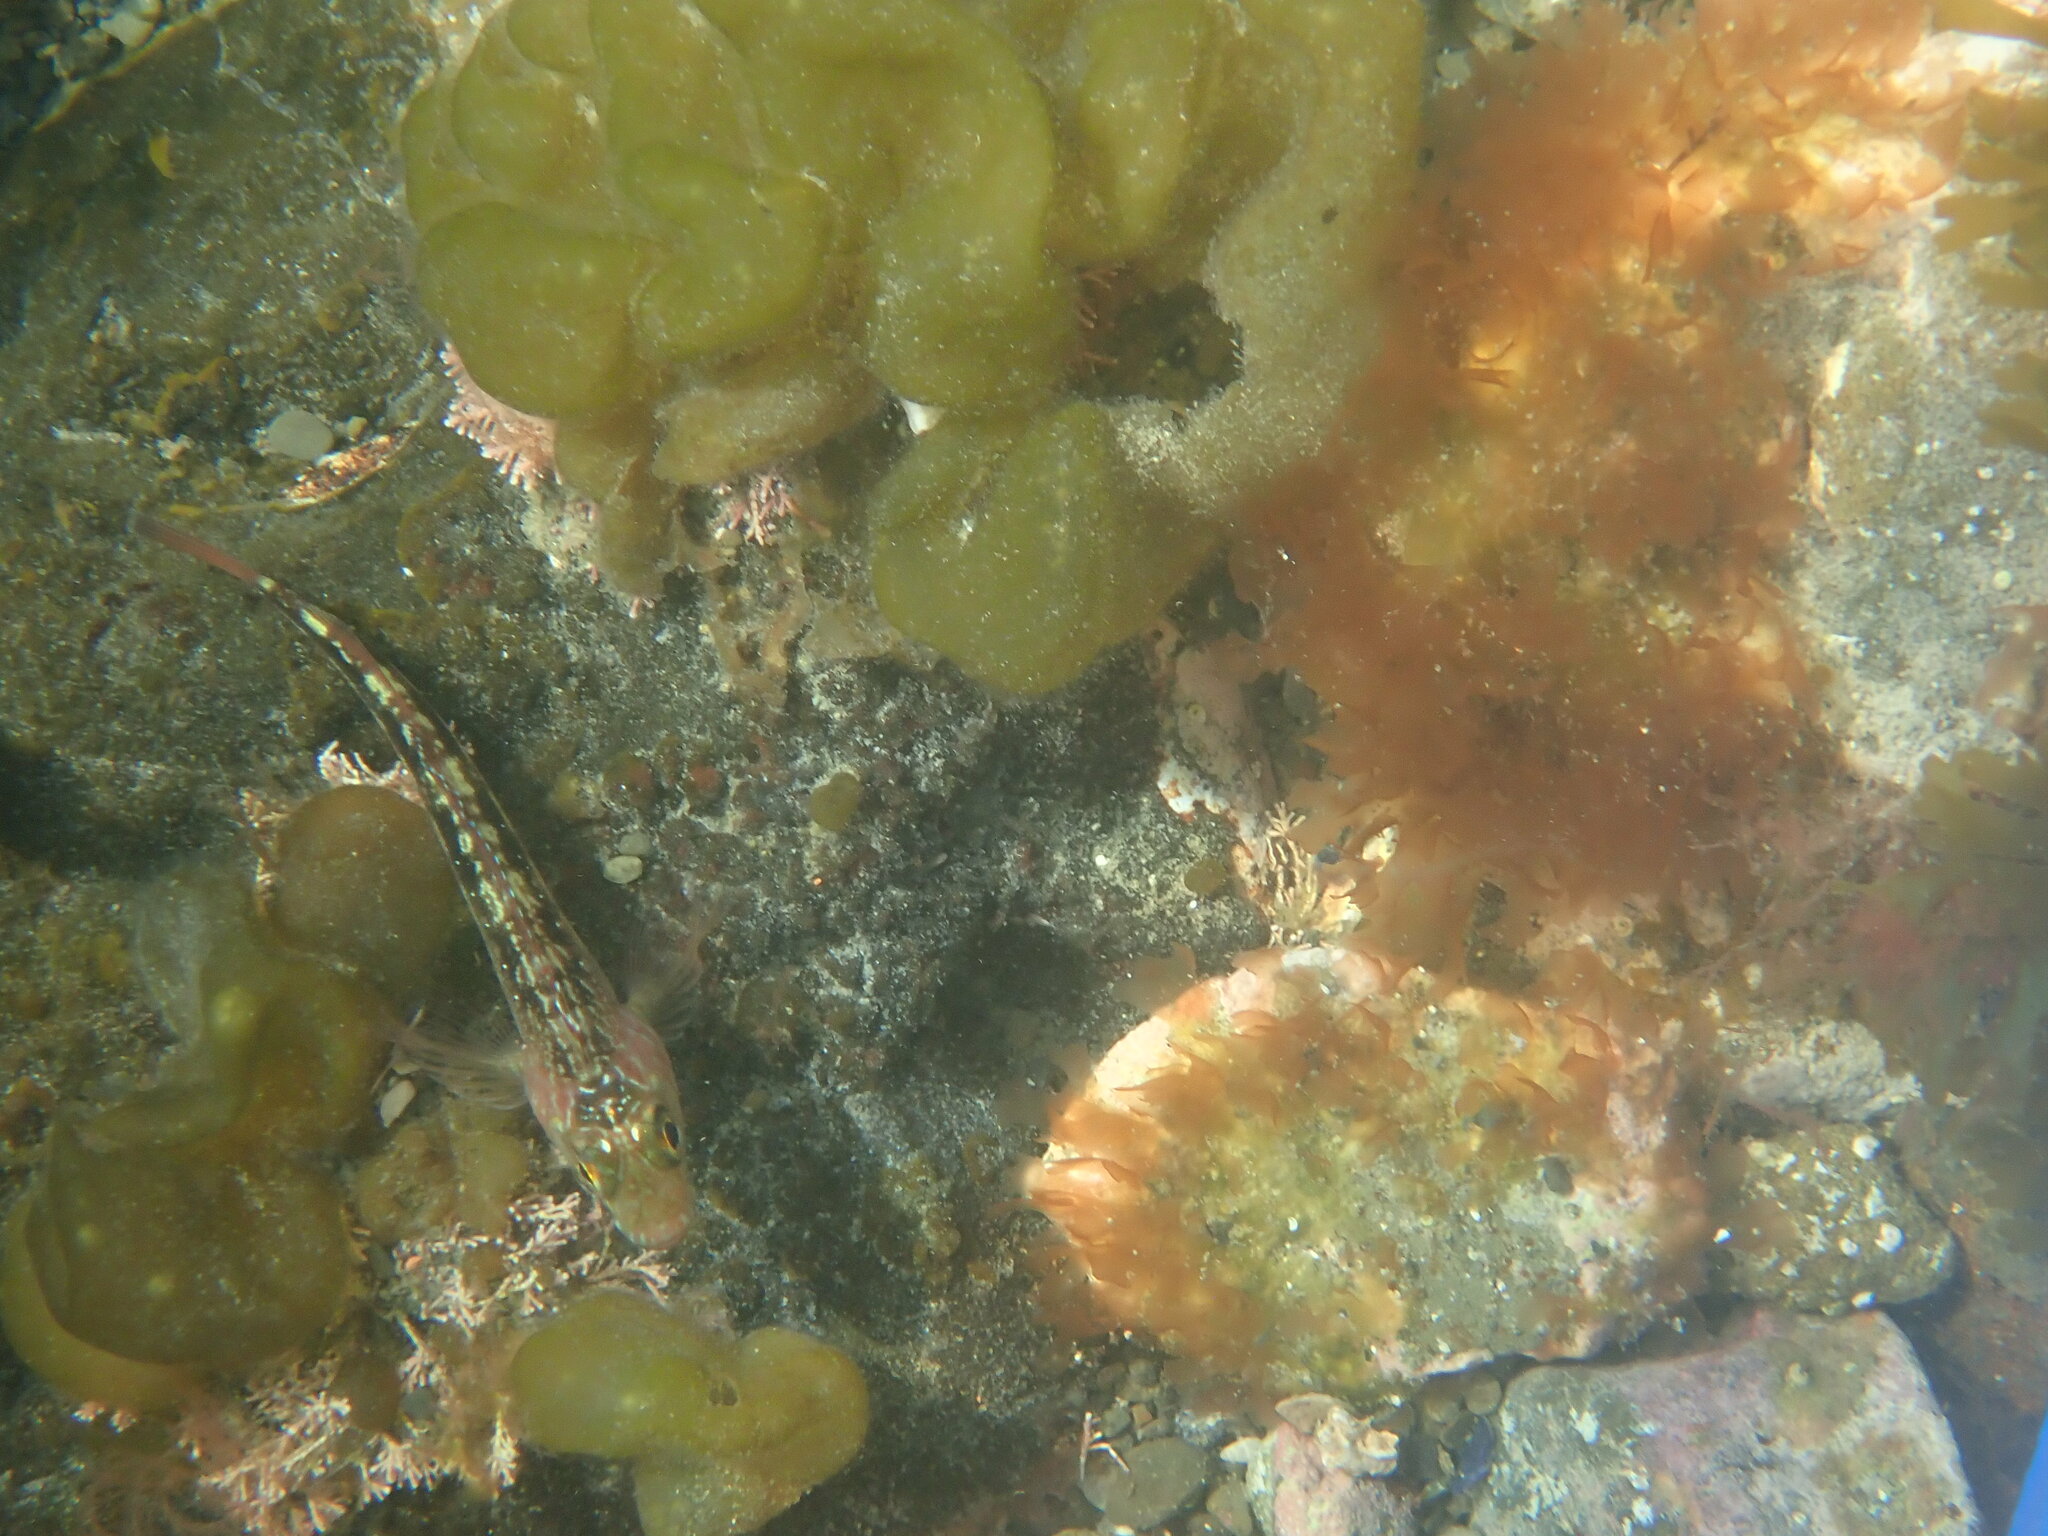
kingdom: Animalia
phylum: Chordata
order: Perciformes
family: Tripterygiidae
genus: Forsterygion
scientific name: Forsterygion varium
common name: Variable triplefin
